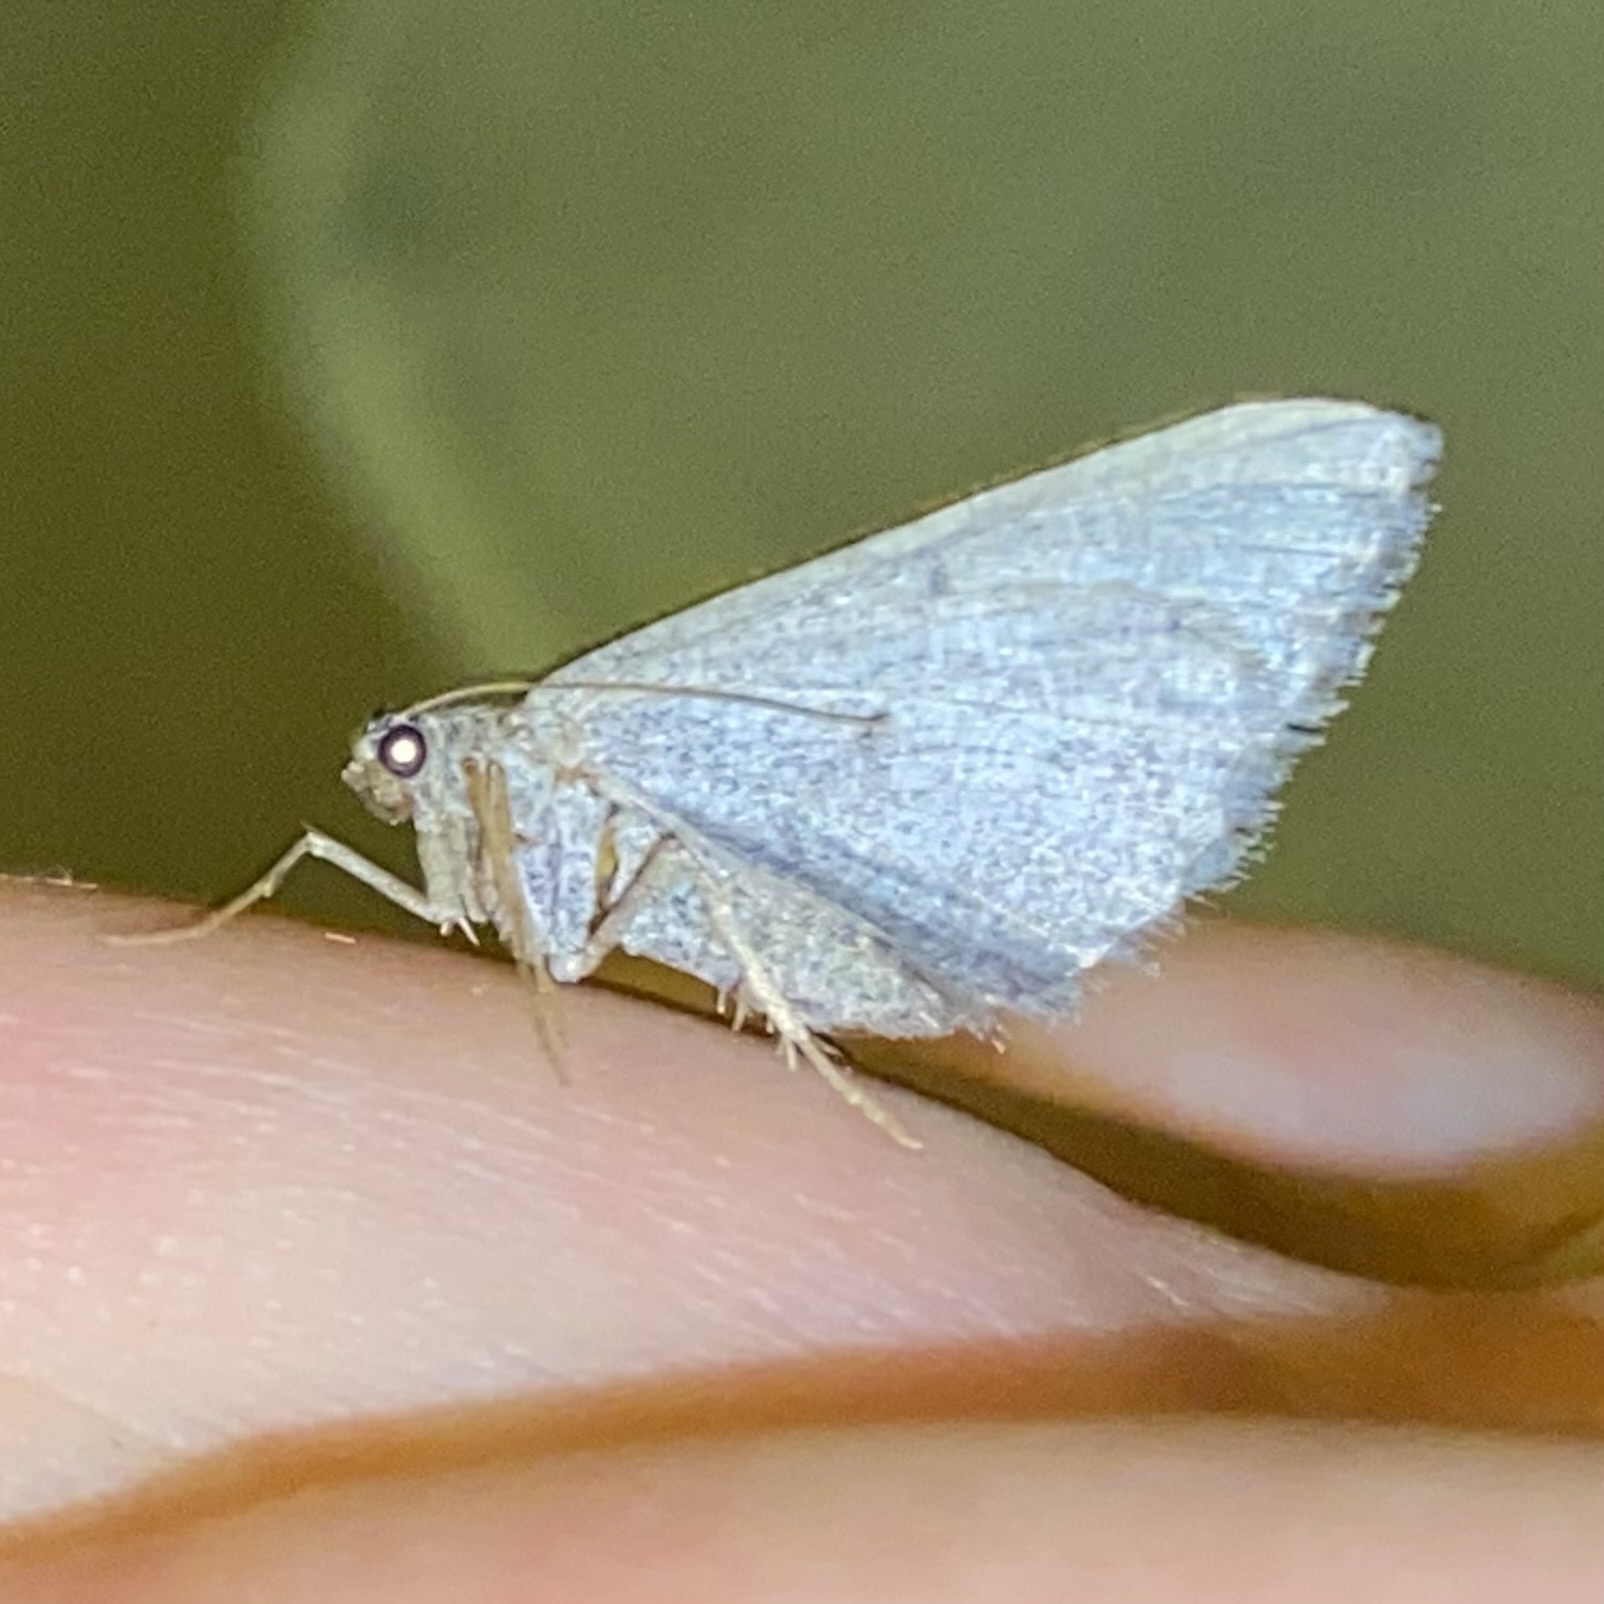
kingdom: Animalia
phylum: Arthropoda
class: Insecta
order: Lepidoptera
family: Geometridae
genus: Digrammia
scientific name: Digrammia atrofasciata
